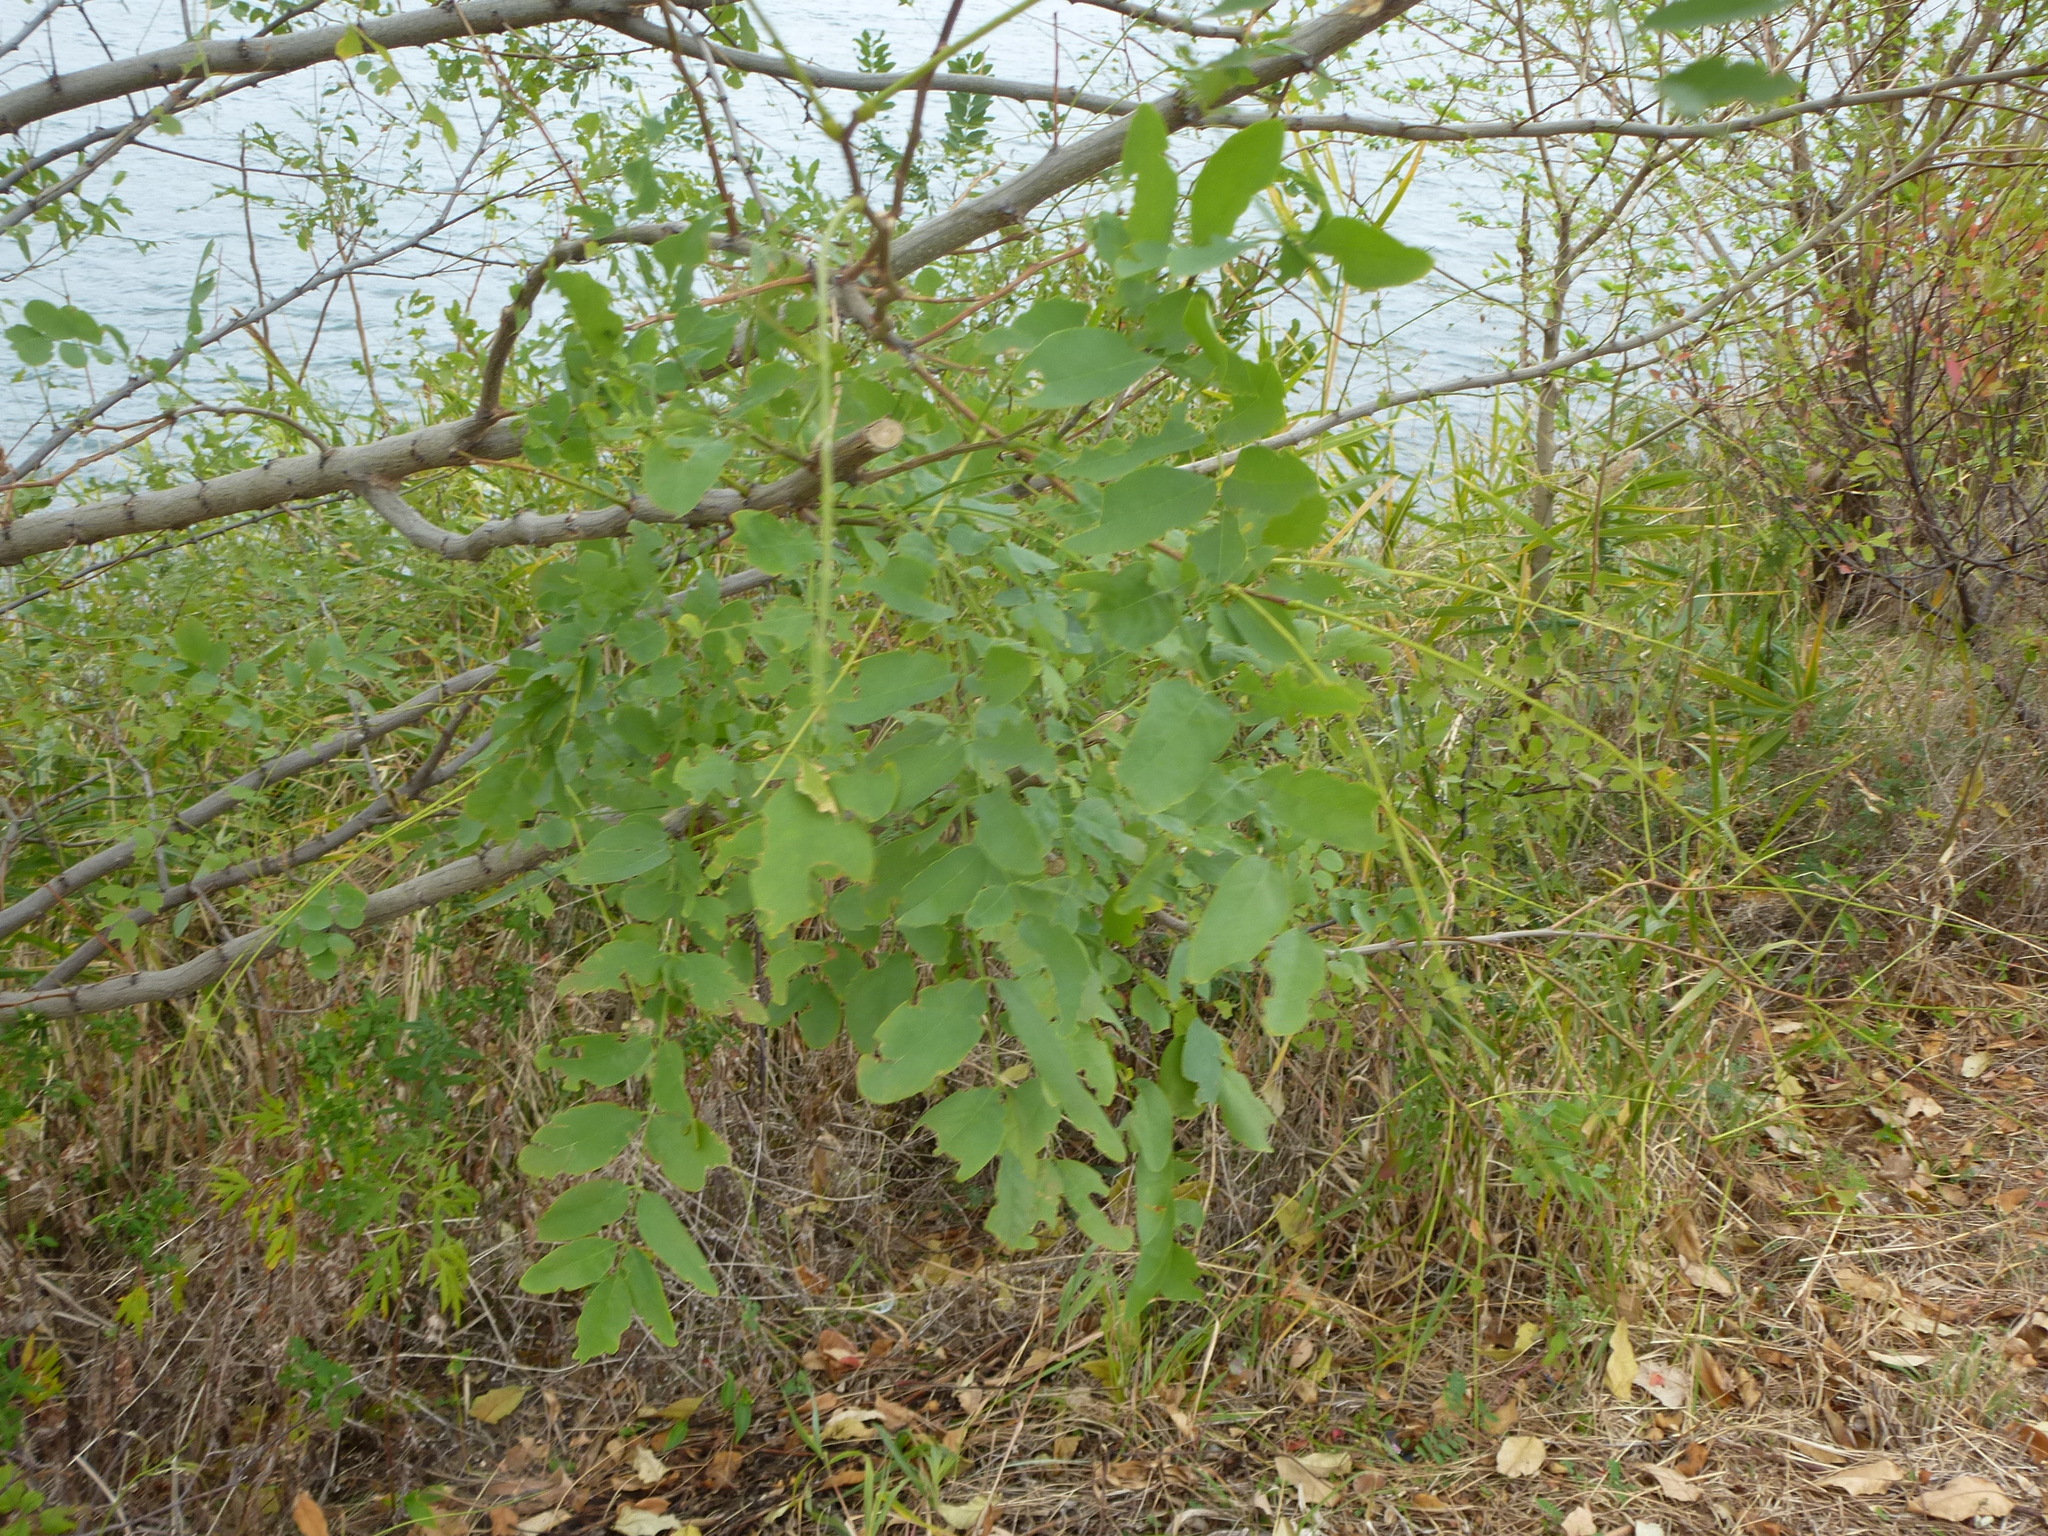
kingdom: Plantae
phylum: Tracheophyta
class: Magnoliopsida
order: Fabales
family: Fabaceae
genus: Robinia
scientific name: Robinia pseudoacacia
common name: Black locust
